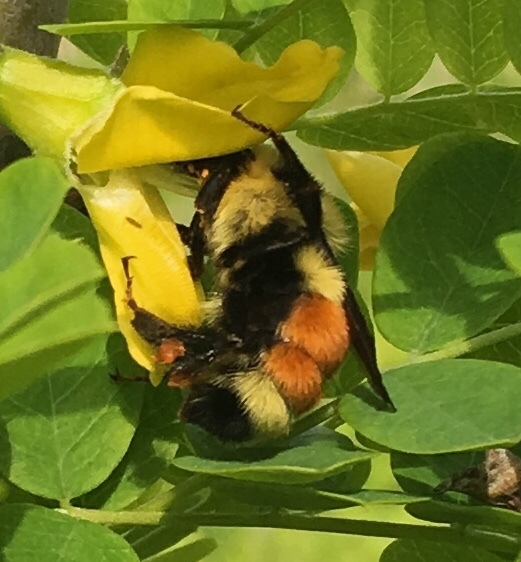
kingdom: Animalia
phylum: Arthropoda
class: Insecta
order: Hymenoptera
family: Apidae
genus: Bombus
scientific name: Bombus ternarius
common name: Tri-colored bumble bee
